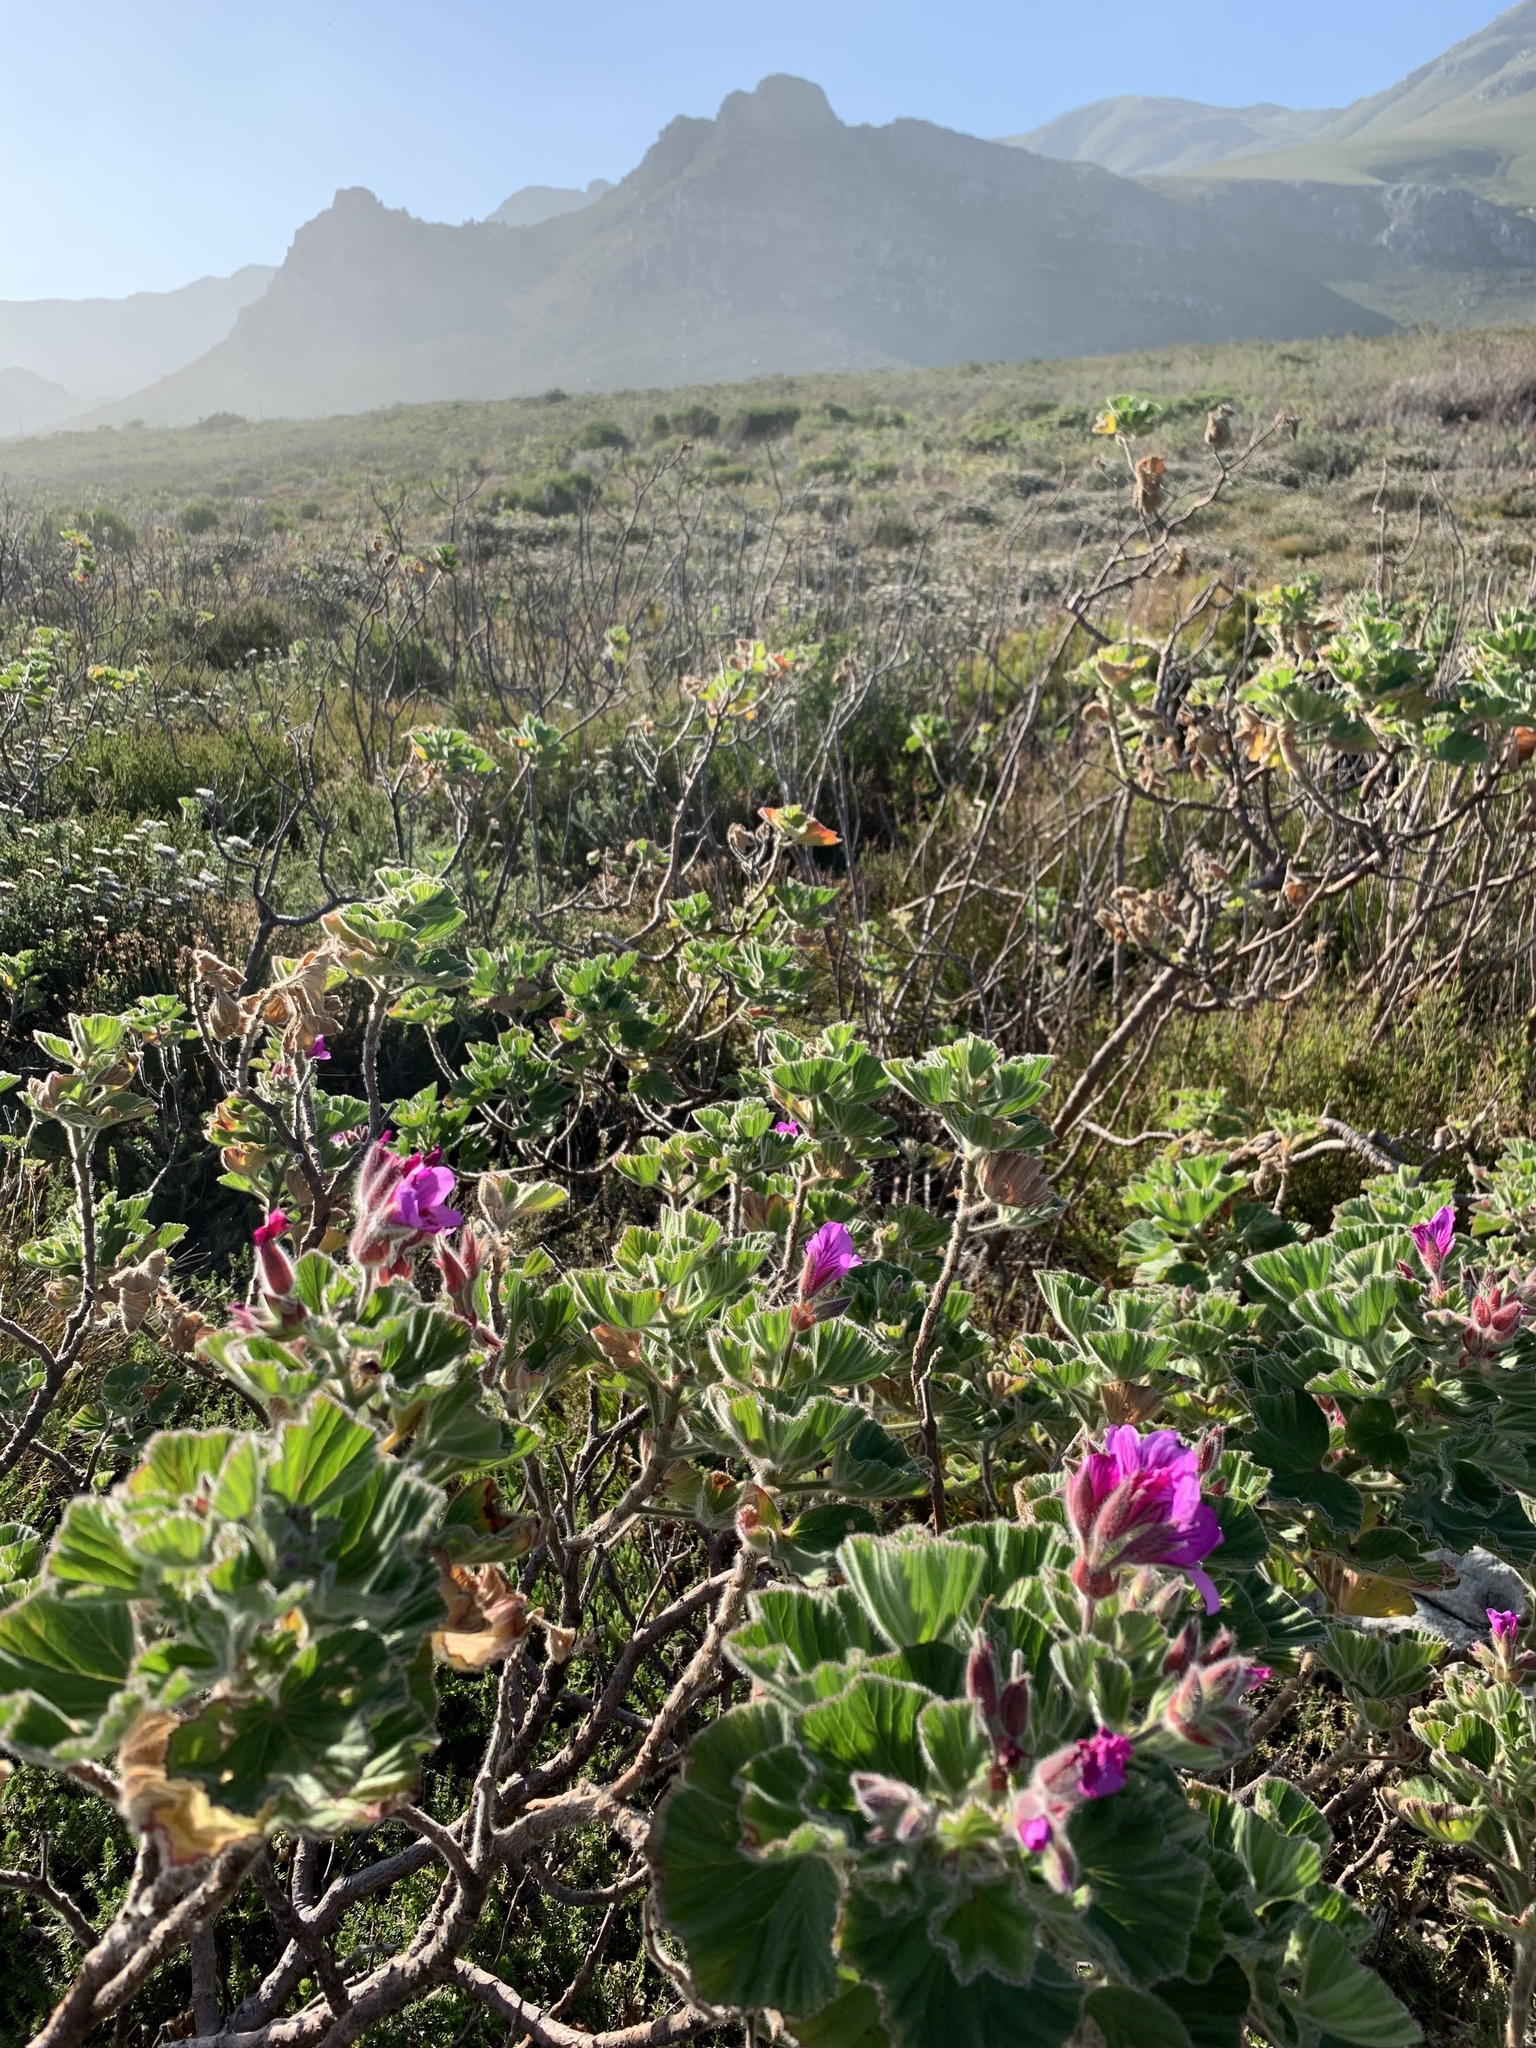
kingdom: Plantae
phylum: Tracheophyta
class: Magnoliopsida
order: Geraniales
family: Geraniaceae
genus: Pelargonium
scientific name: Pelargonium cucullatum
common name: Tree pelargonium
